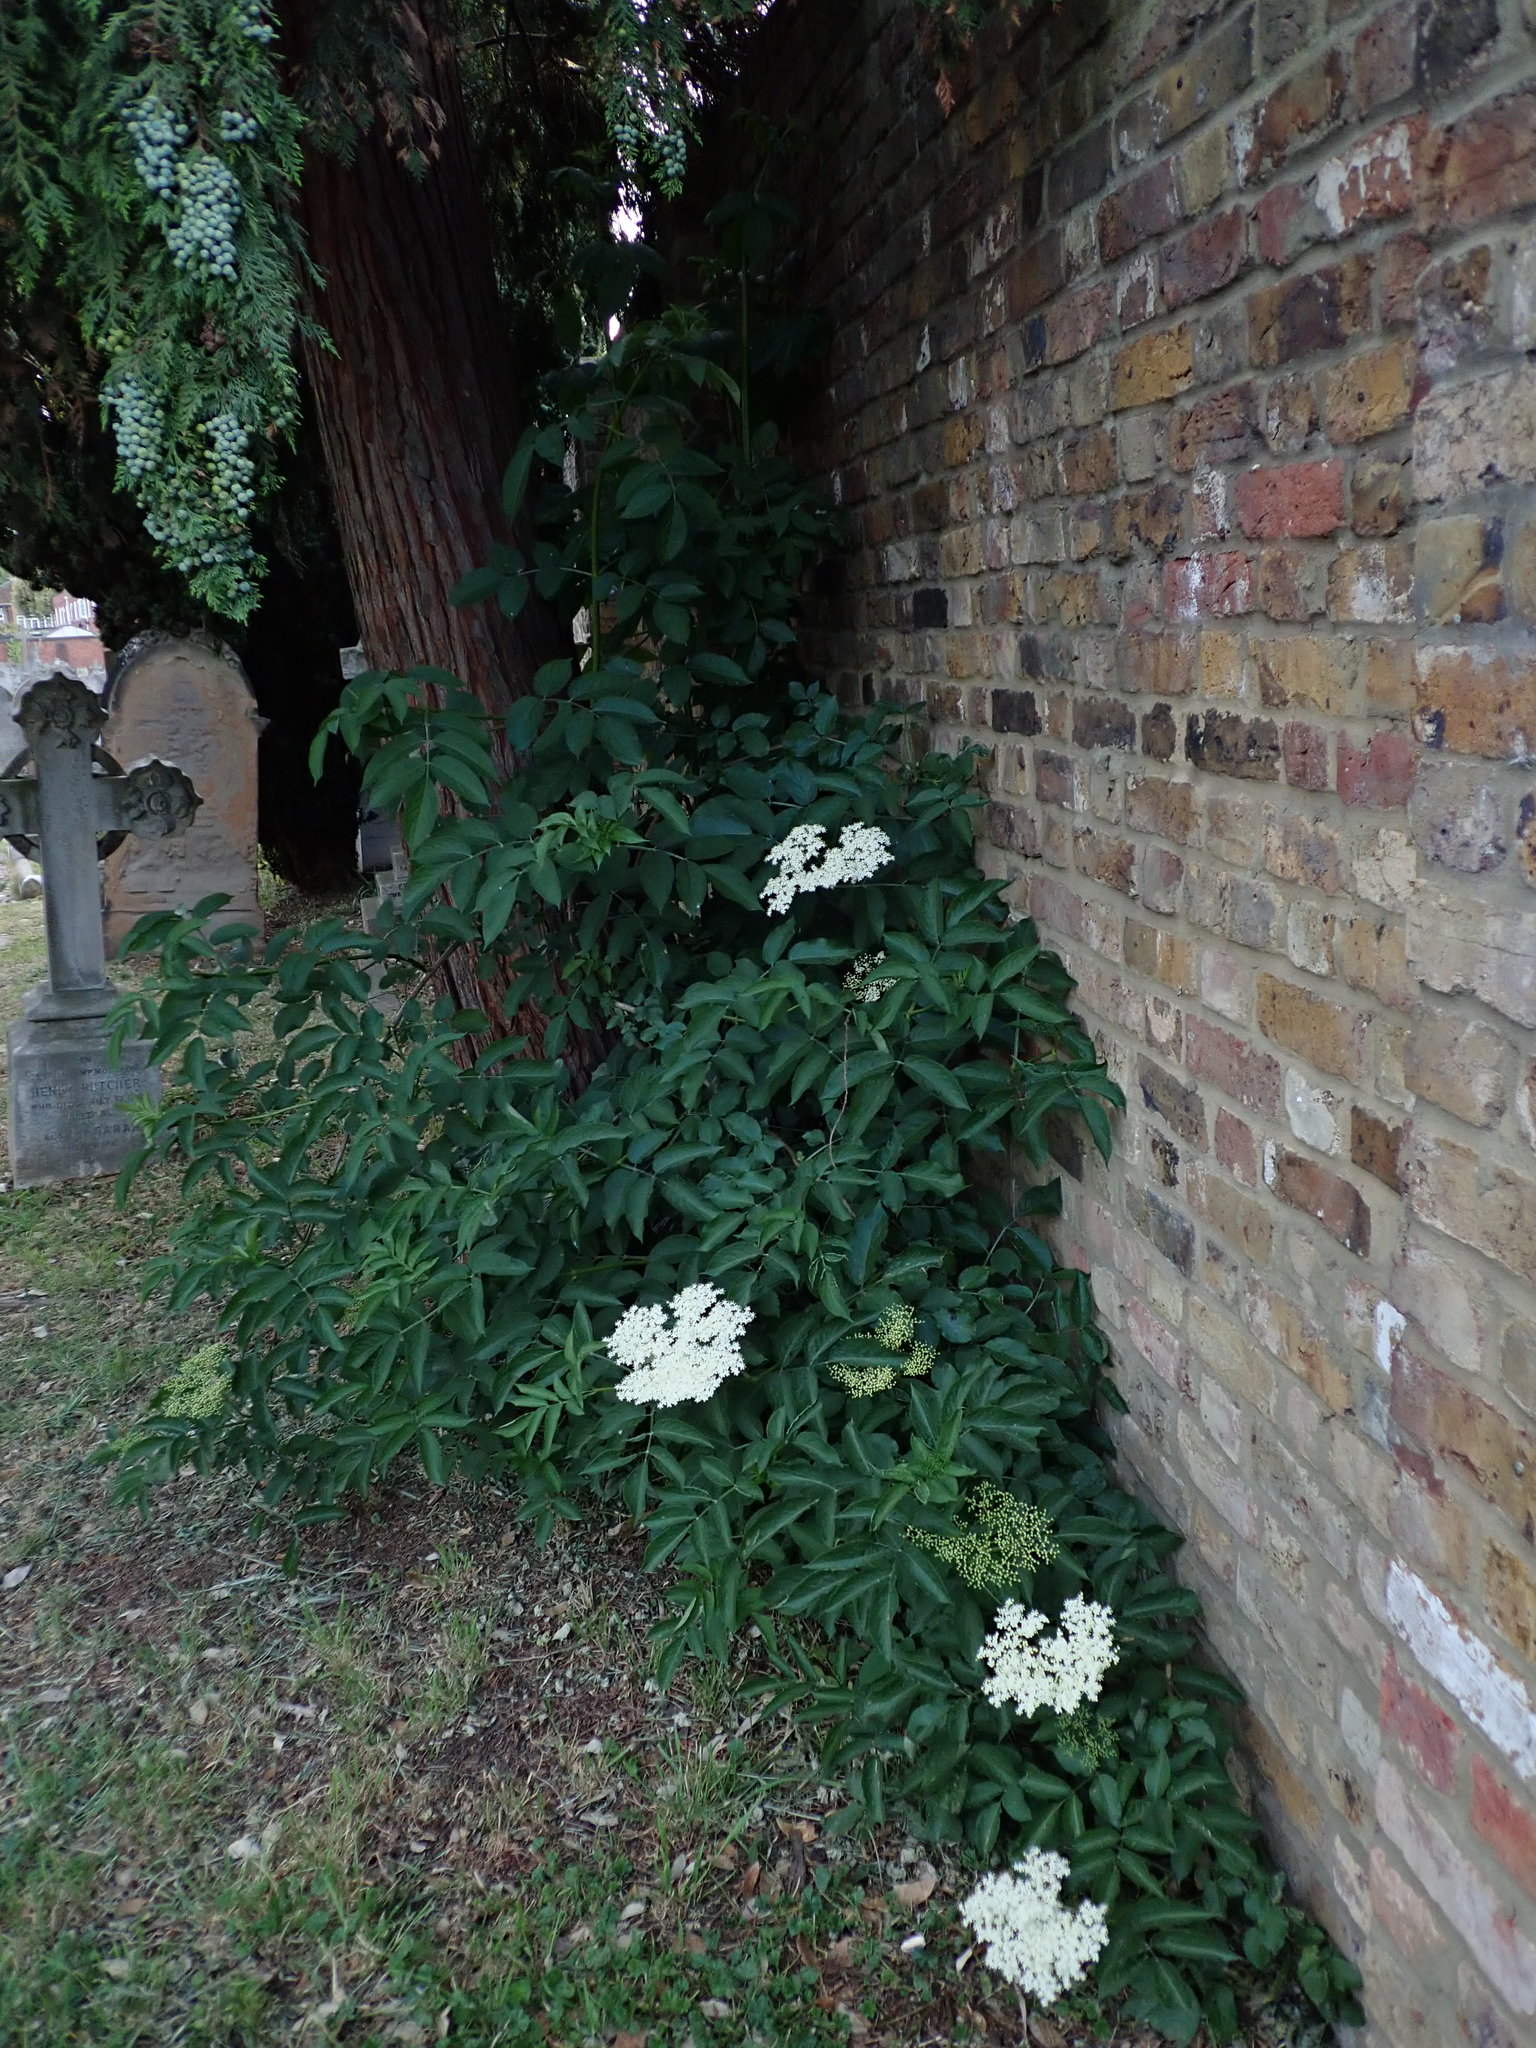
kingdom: Plantae
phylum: Tracheophyta
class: Magnoliopsida
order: Dipsacales
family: Viburnaceae
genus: Sambucus
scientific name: Sambucus nigra
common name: Elder
